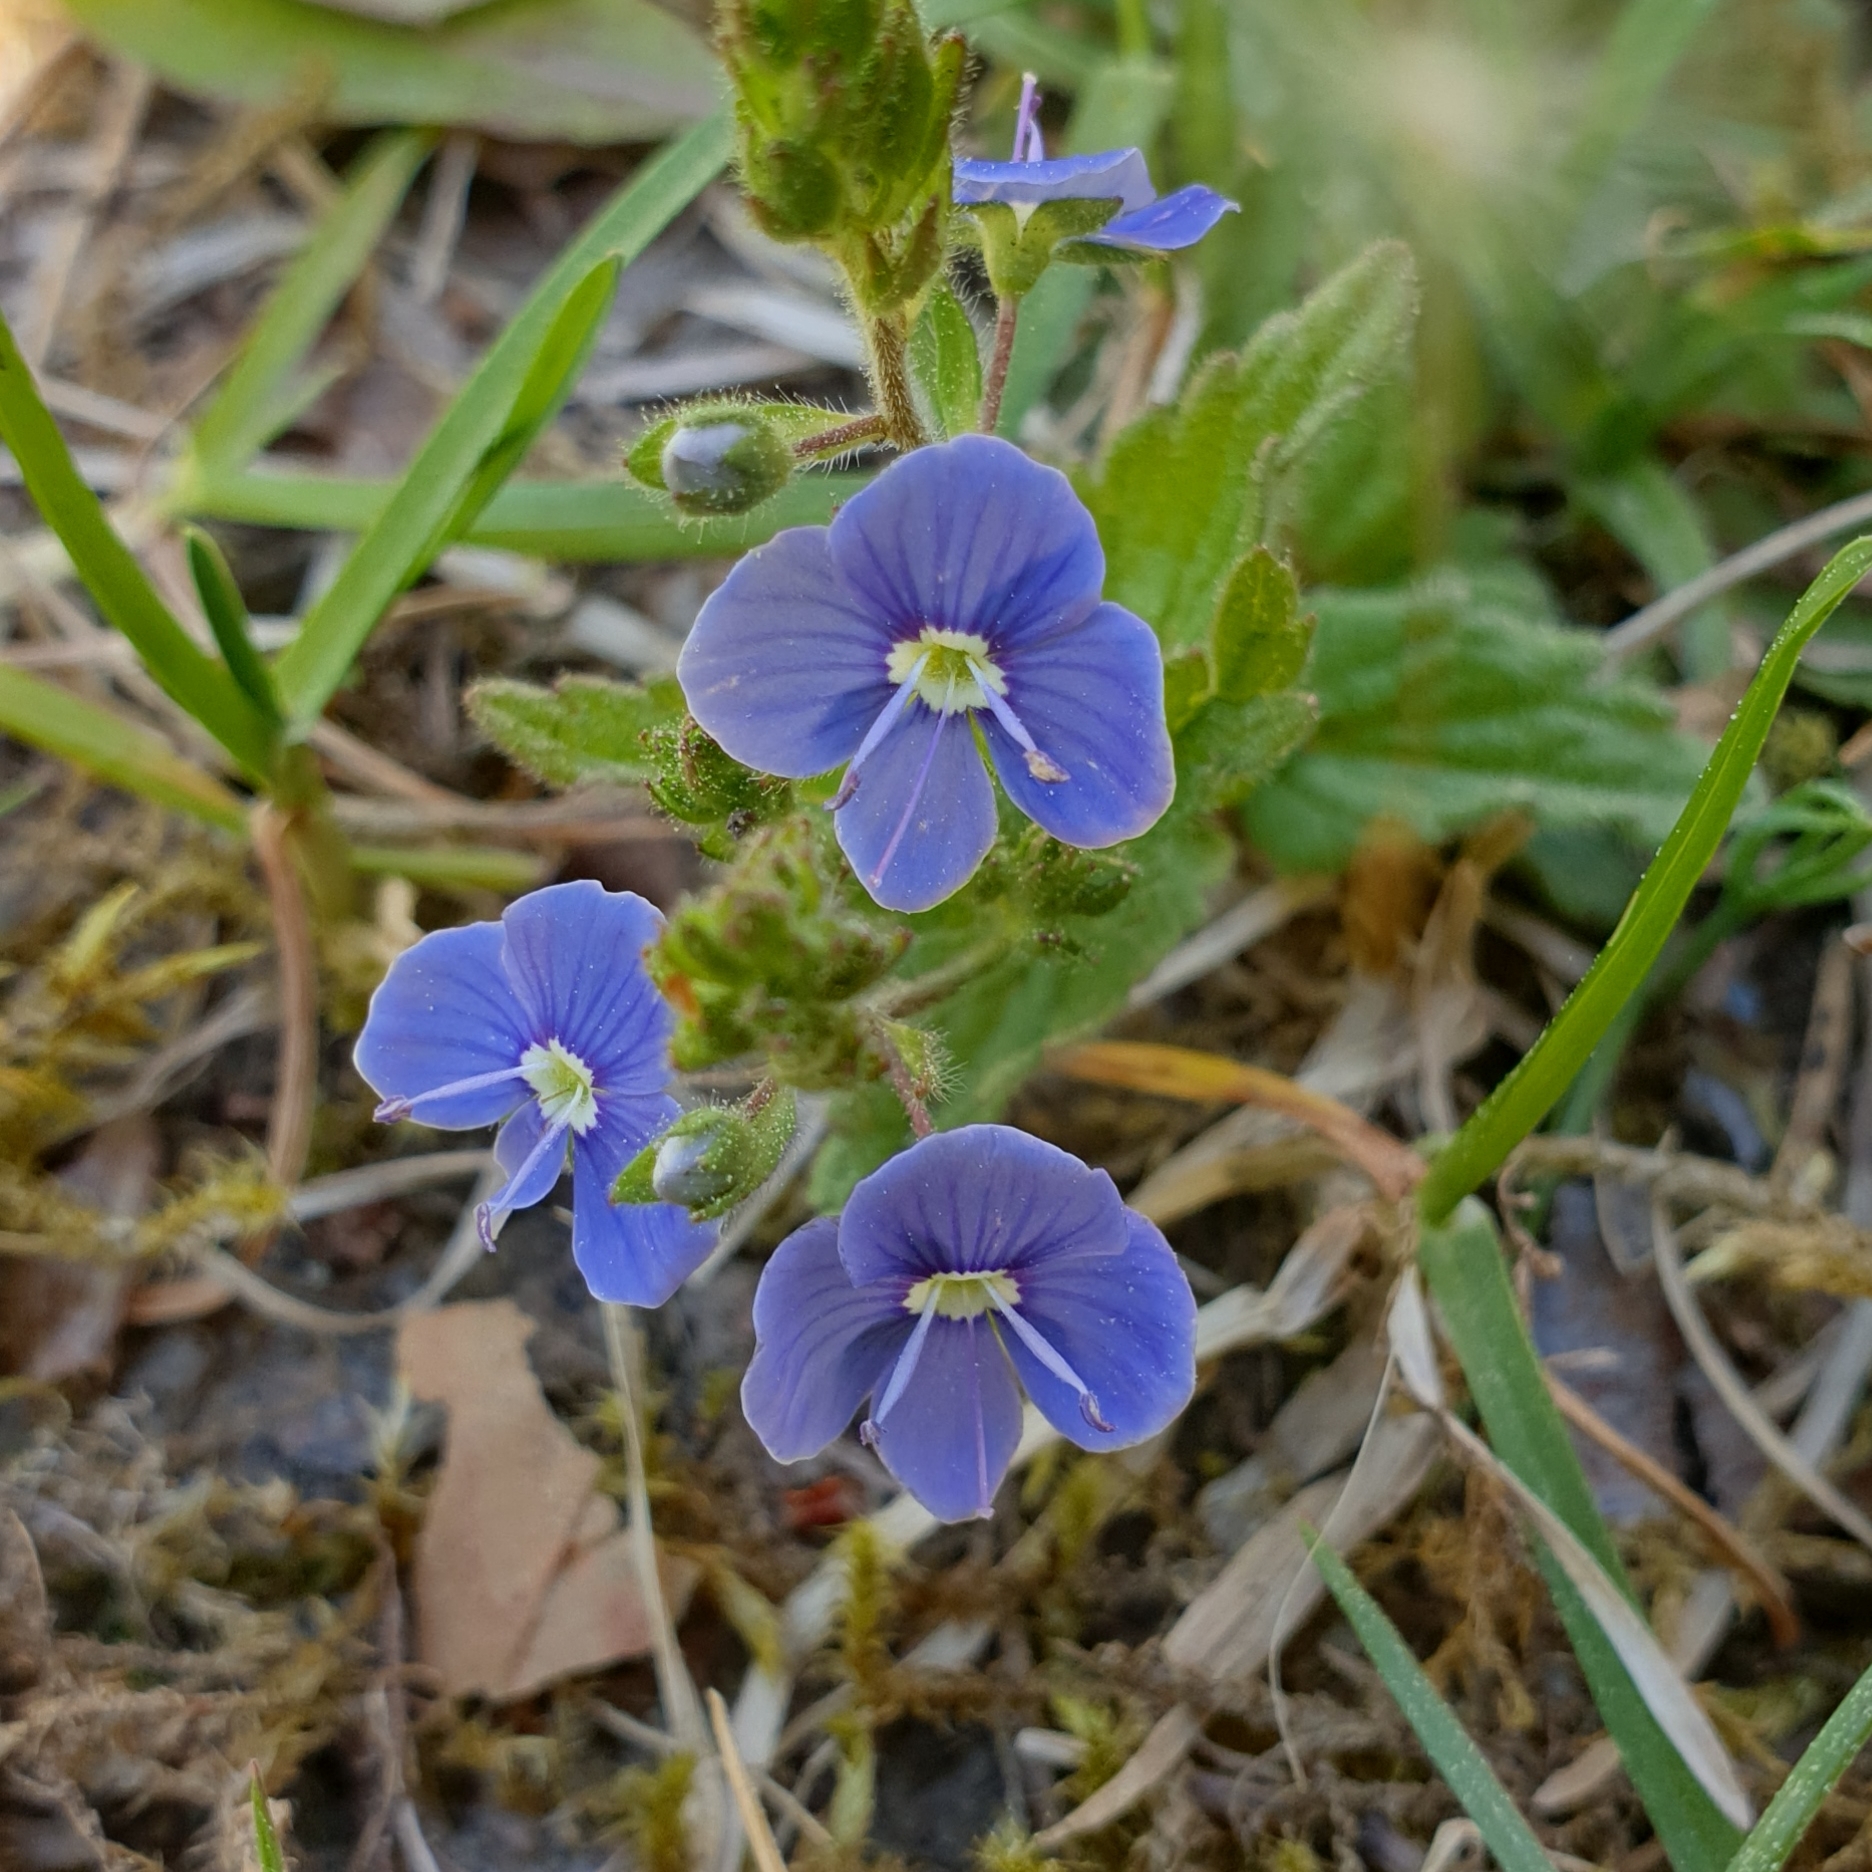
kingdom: Plantae
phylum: Tracheophyta
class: Magnoliopsida
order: Lamiales
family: Plantaginaceae
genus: Veronica
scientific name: Veronica chamaedrys
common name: Germander speedwell
